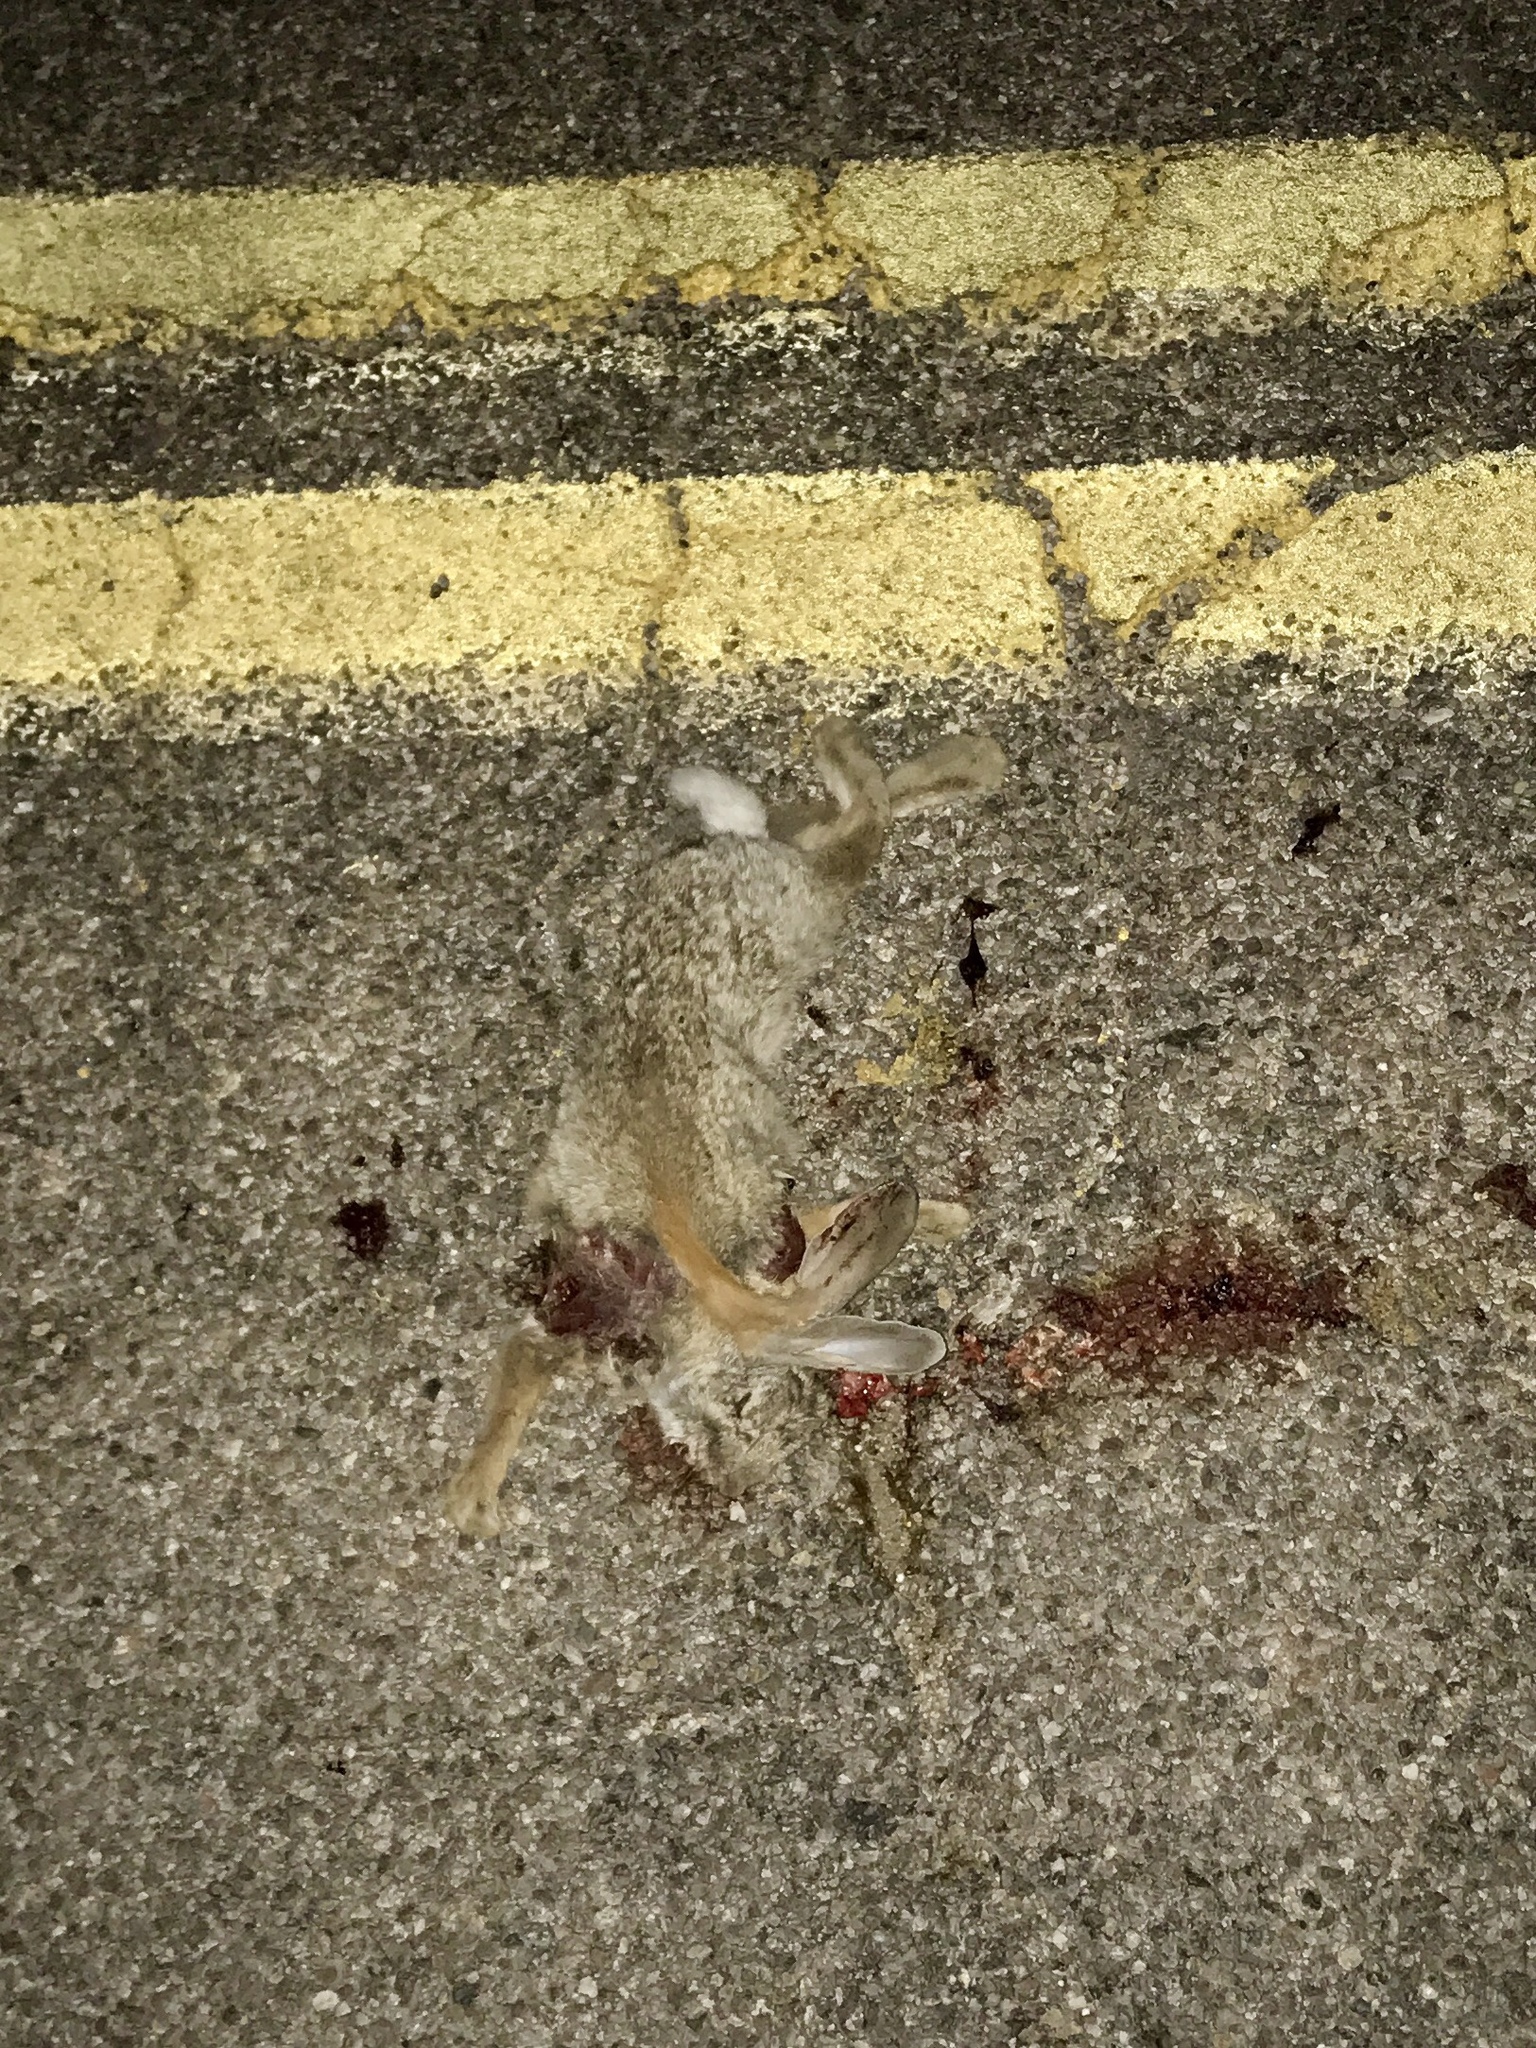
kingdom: Animalia
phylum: Chordata
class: Mammalia
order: Lagomorpha
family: Leporidae
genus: Sylvilagus
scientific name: Sylvilagus audubonii
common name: Desert cottontail
